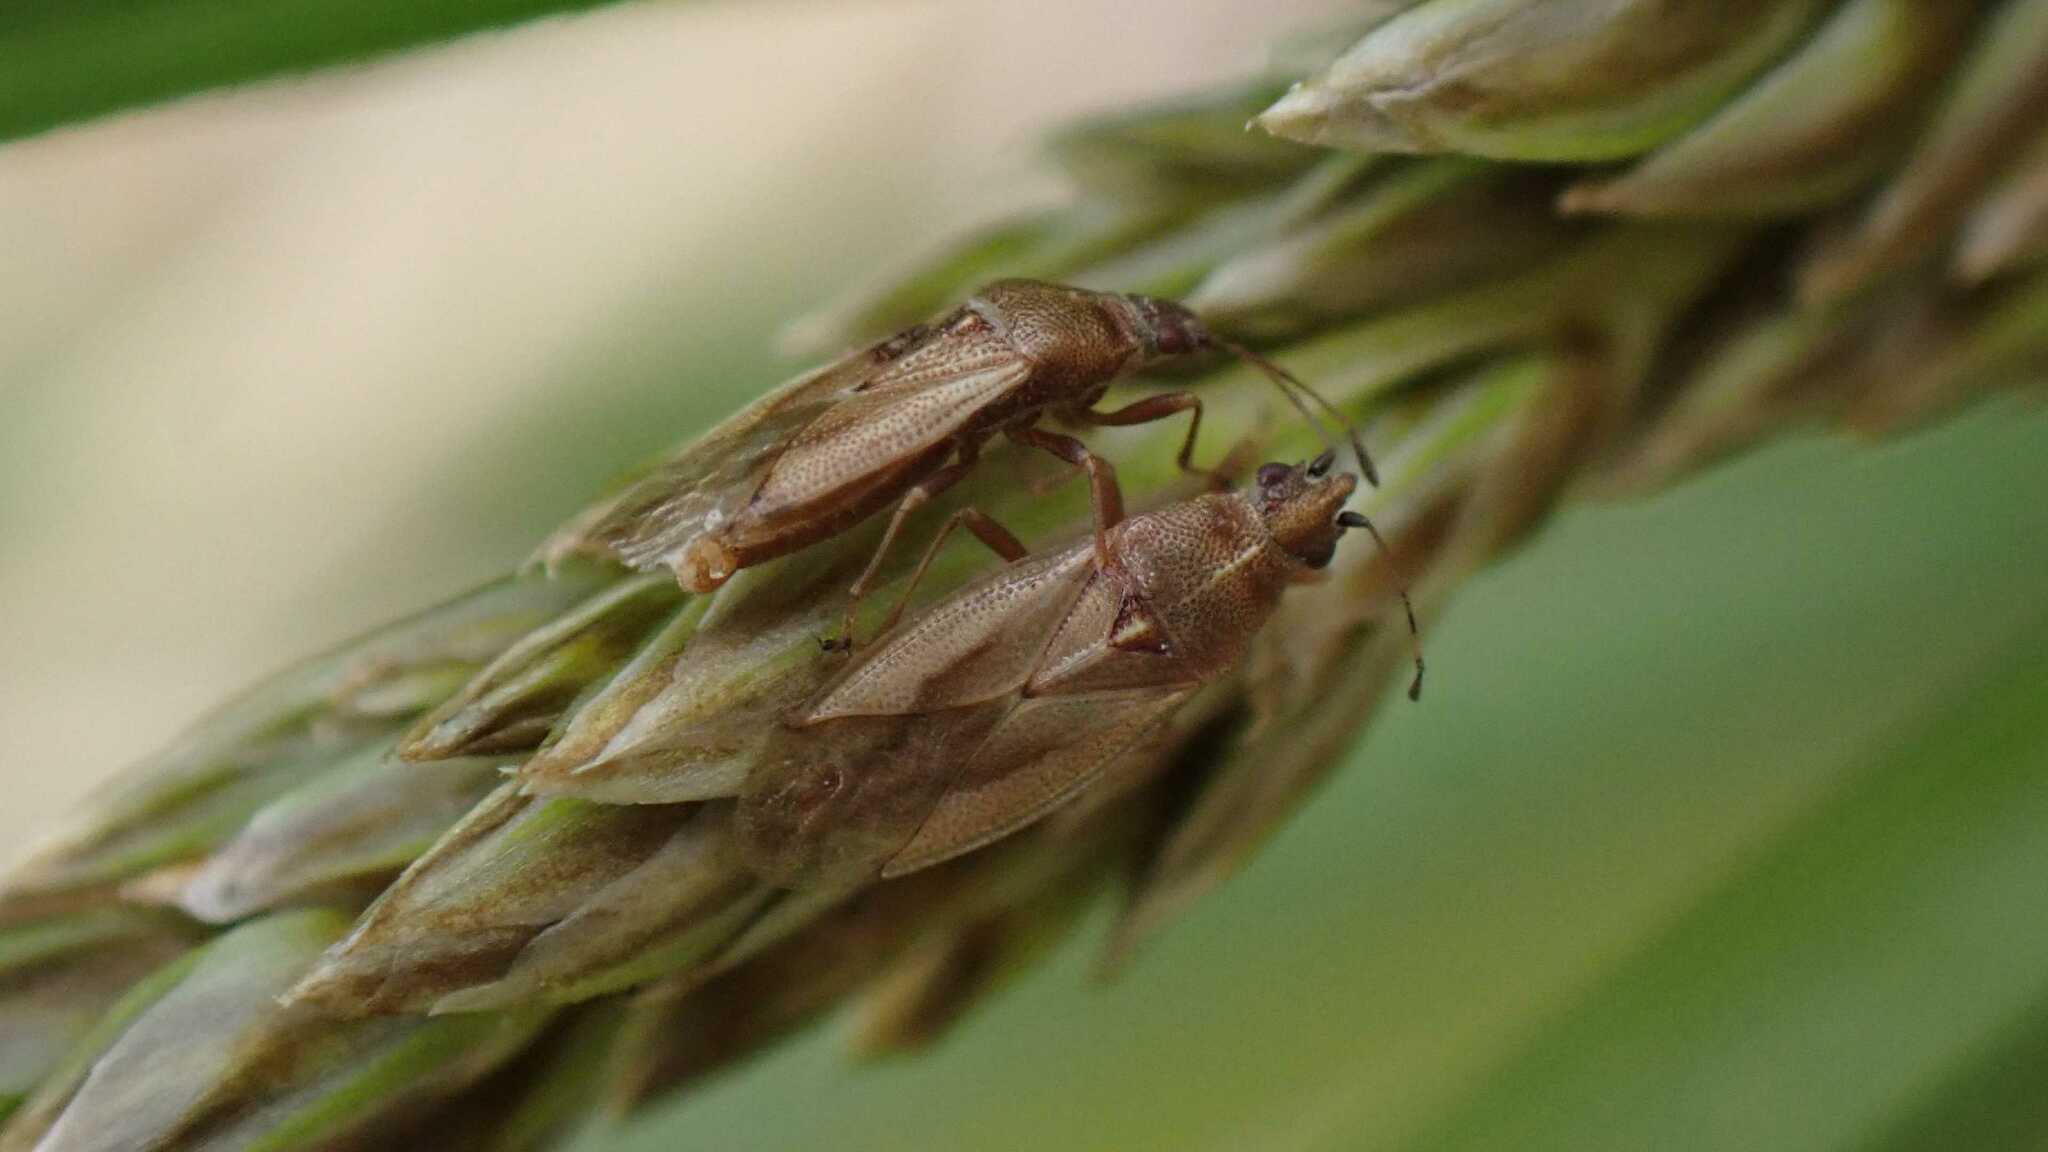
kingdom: Animalia
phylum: Arthropoda
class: Insecta
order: Hemiptera
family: Cymidae
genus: Cymus
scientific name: Cymus glandicolor
